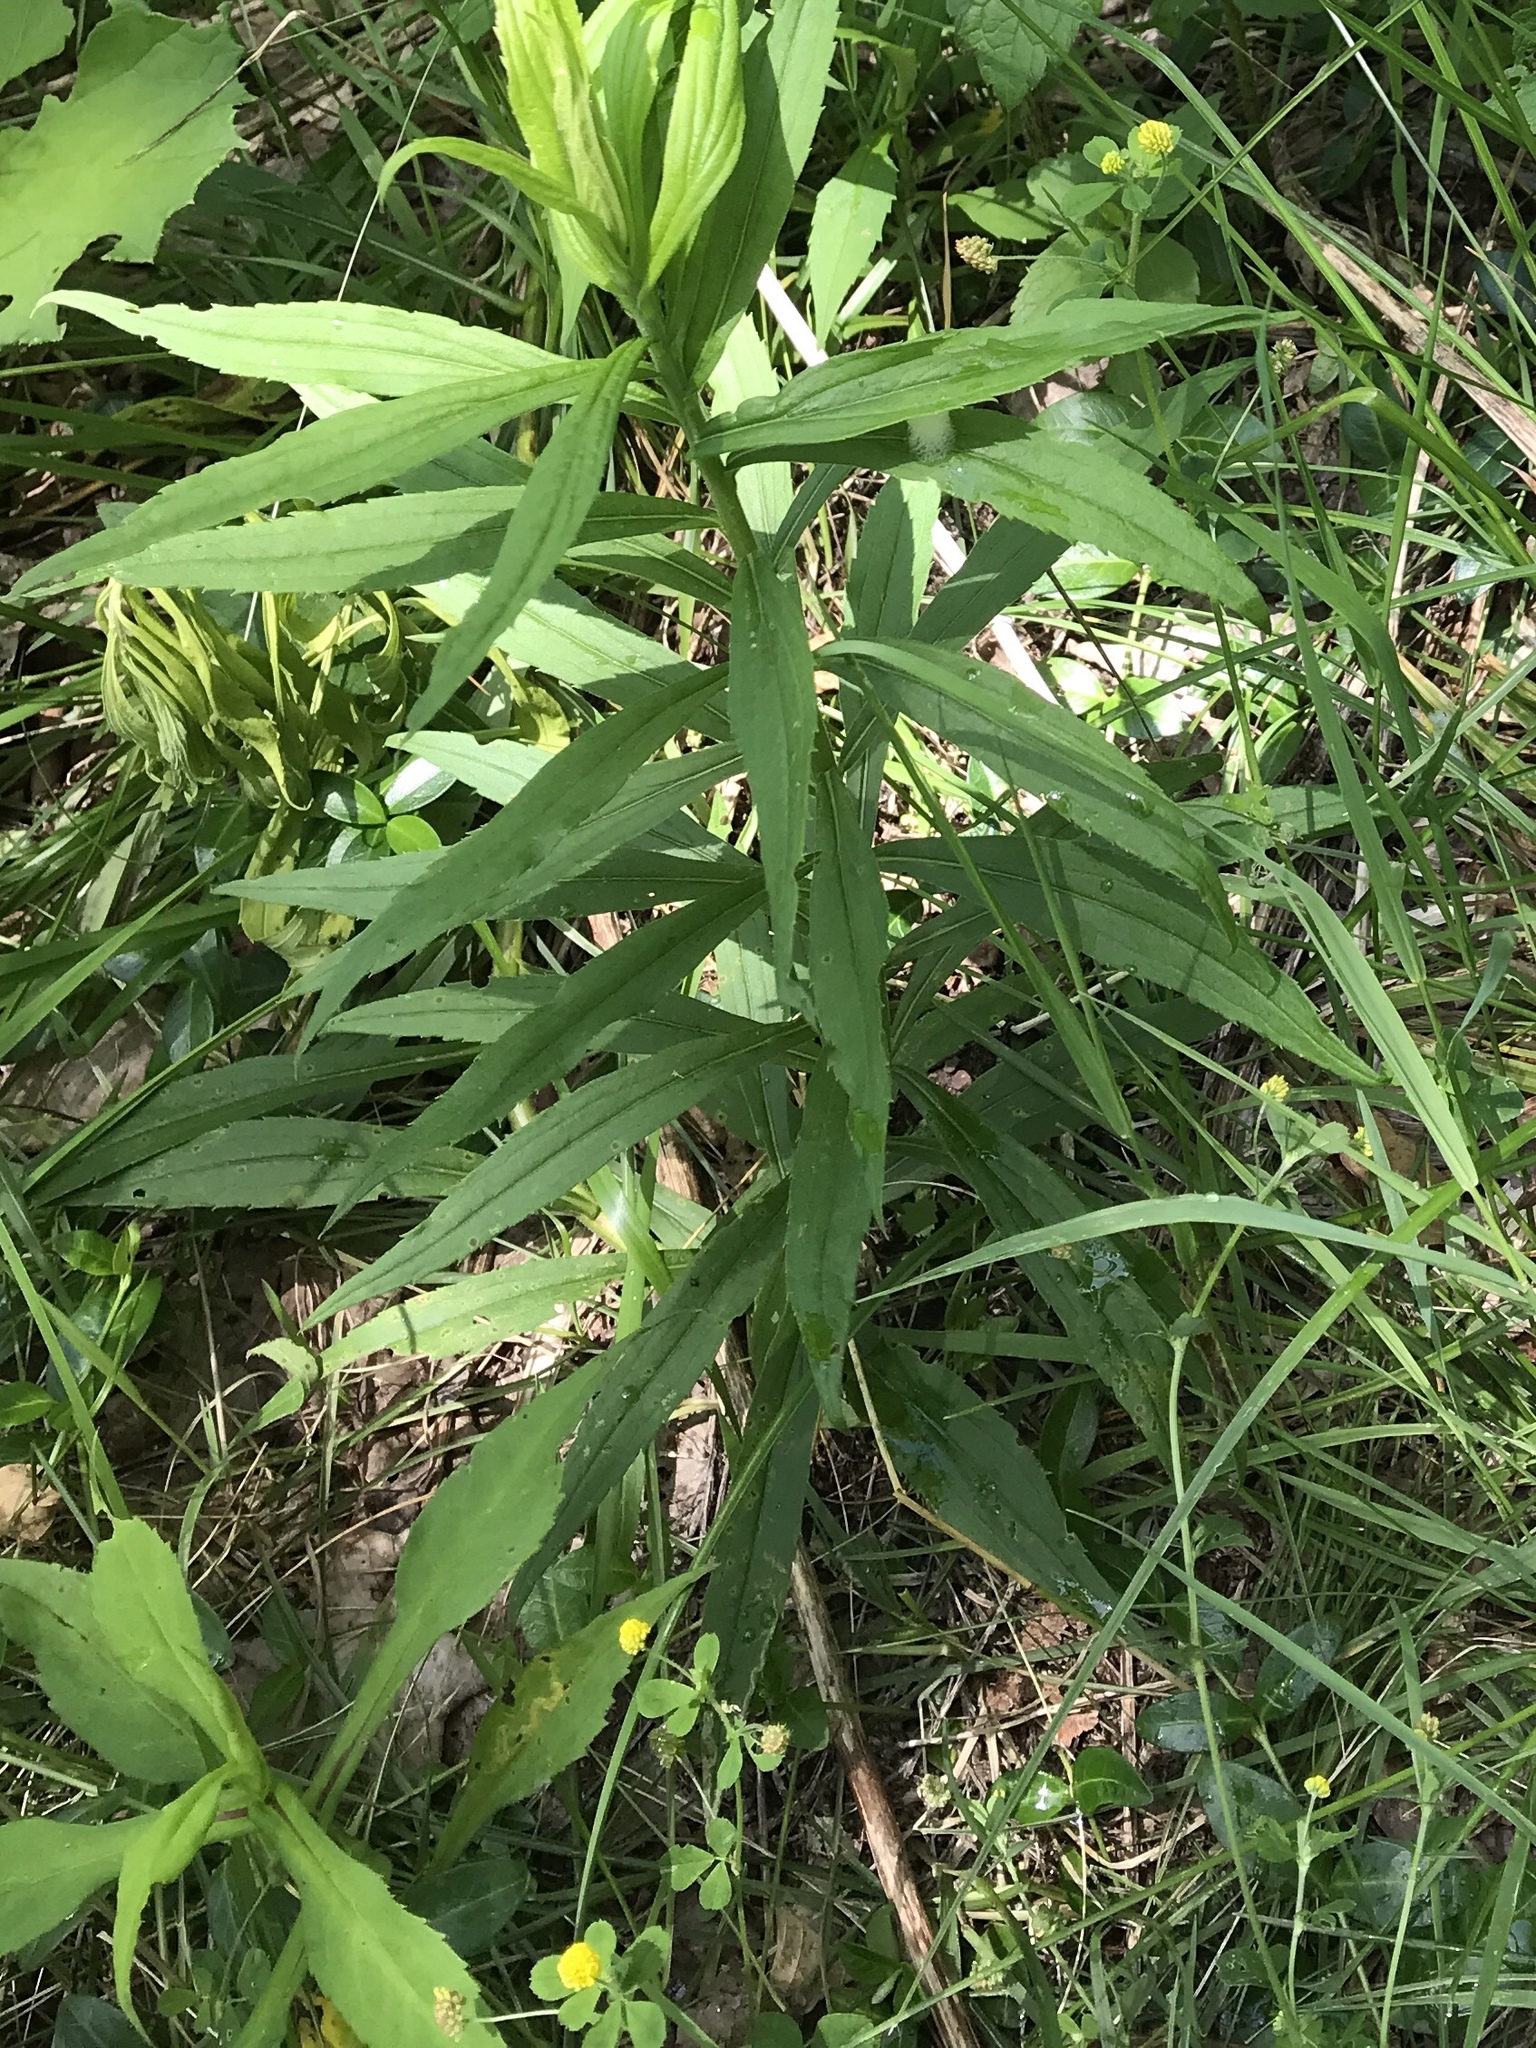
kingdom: Plantae
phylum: Tracheophyta
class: Magnoliopsida
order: Fabales
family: Fabaceae
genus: Medicago
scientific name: Medicago lupulina
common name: Black medick
